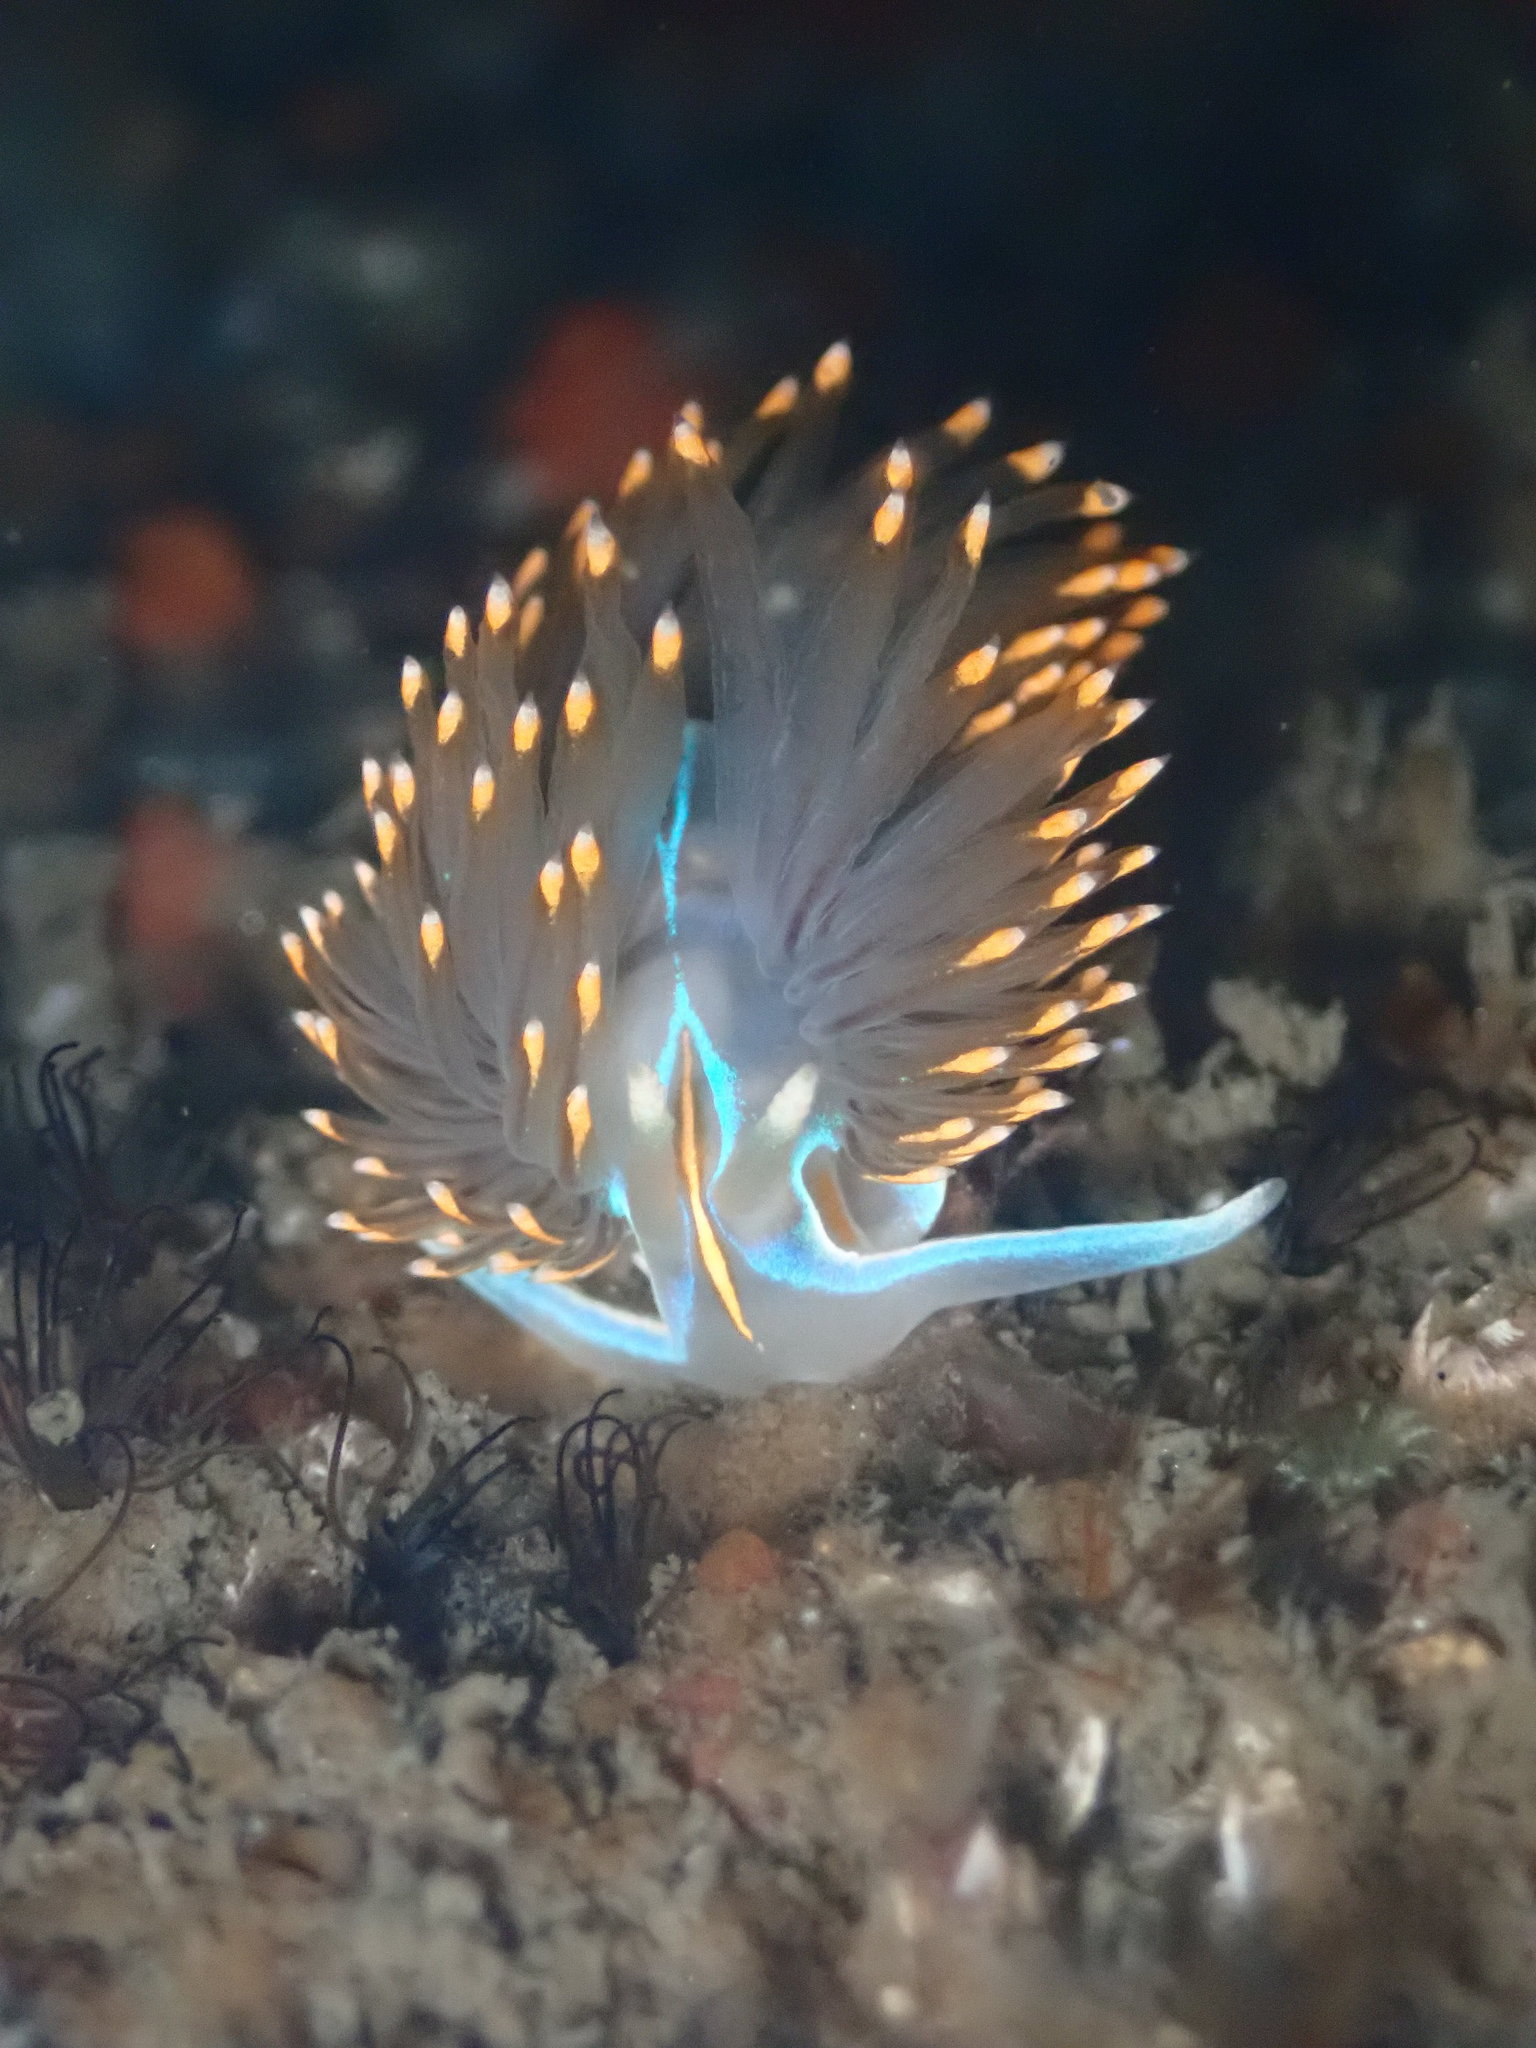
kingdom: Animalia
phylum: Mollusca
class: Gastropoda
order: Nudibranchia
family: Myrrhinidae
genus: Hermissenda
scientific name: Hermissenda opalescens
